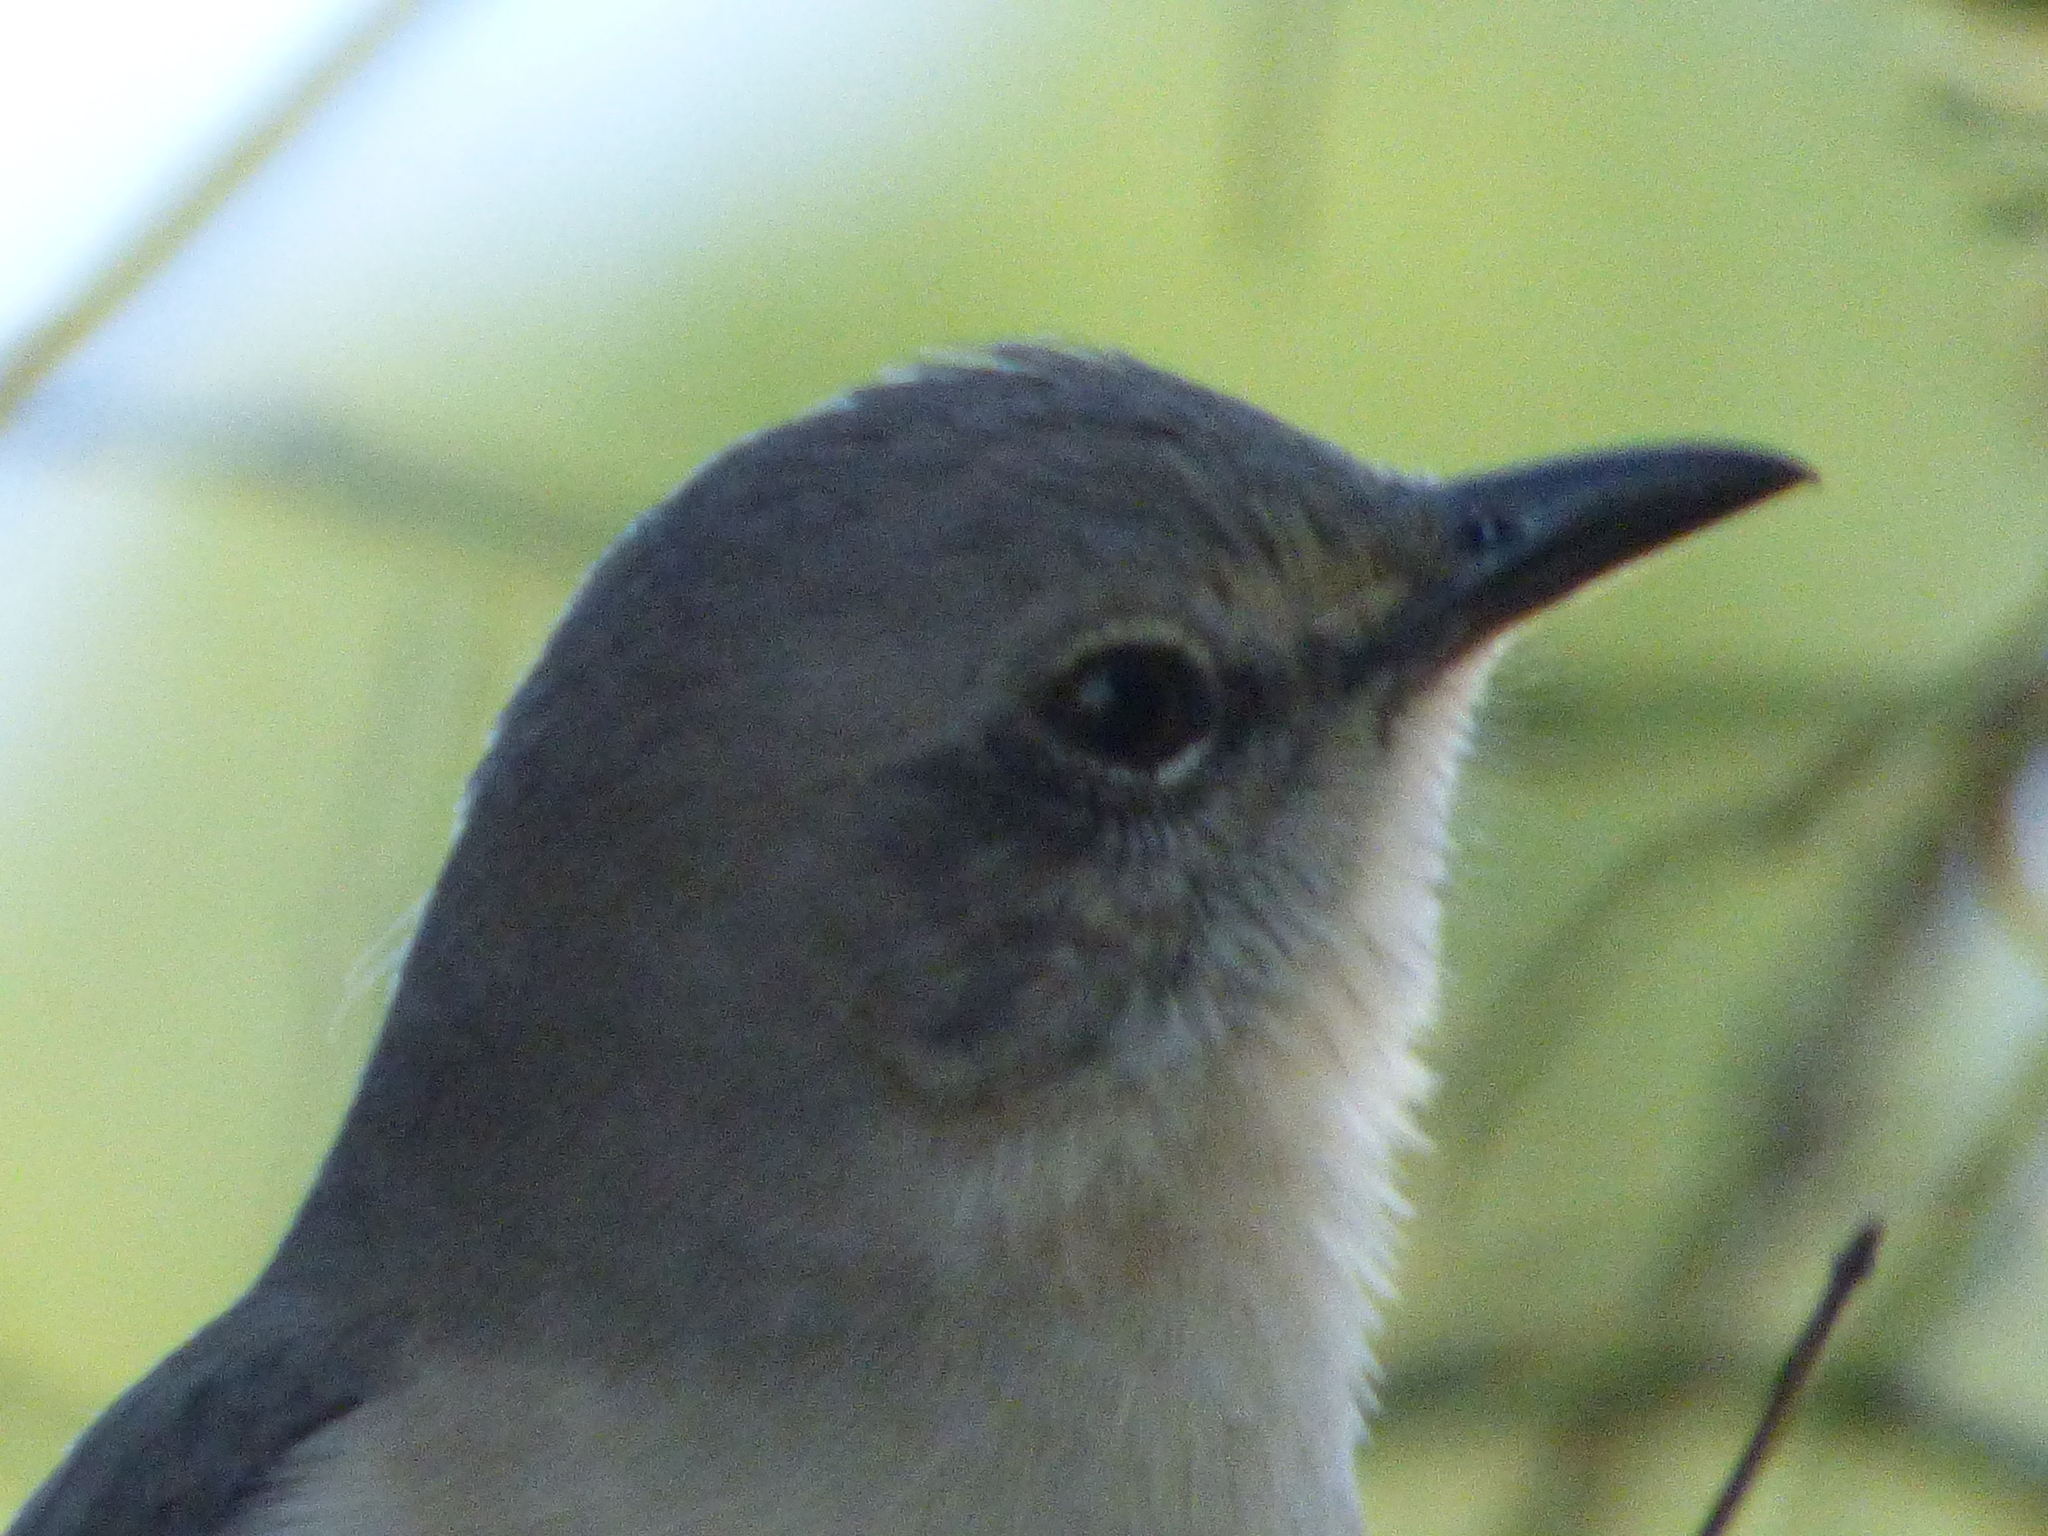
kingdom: Animalia
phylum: Chordata
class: Aves
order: Passeriformes
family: Mimidae
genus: Mimus
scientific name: Mimus polyglottos
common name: Northern mockingbird
